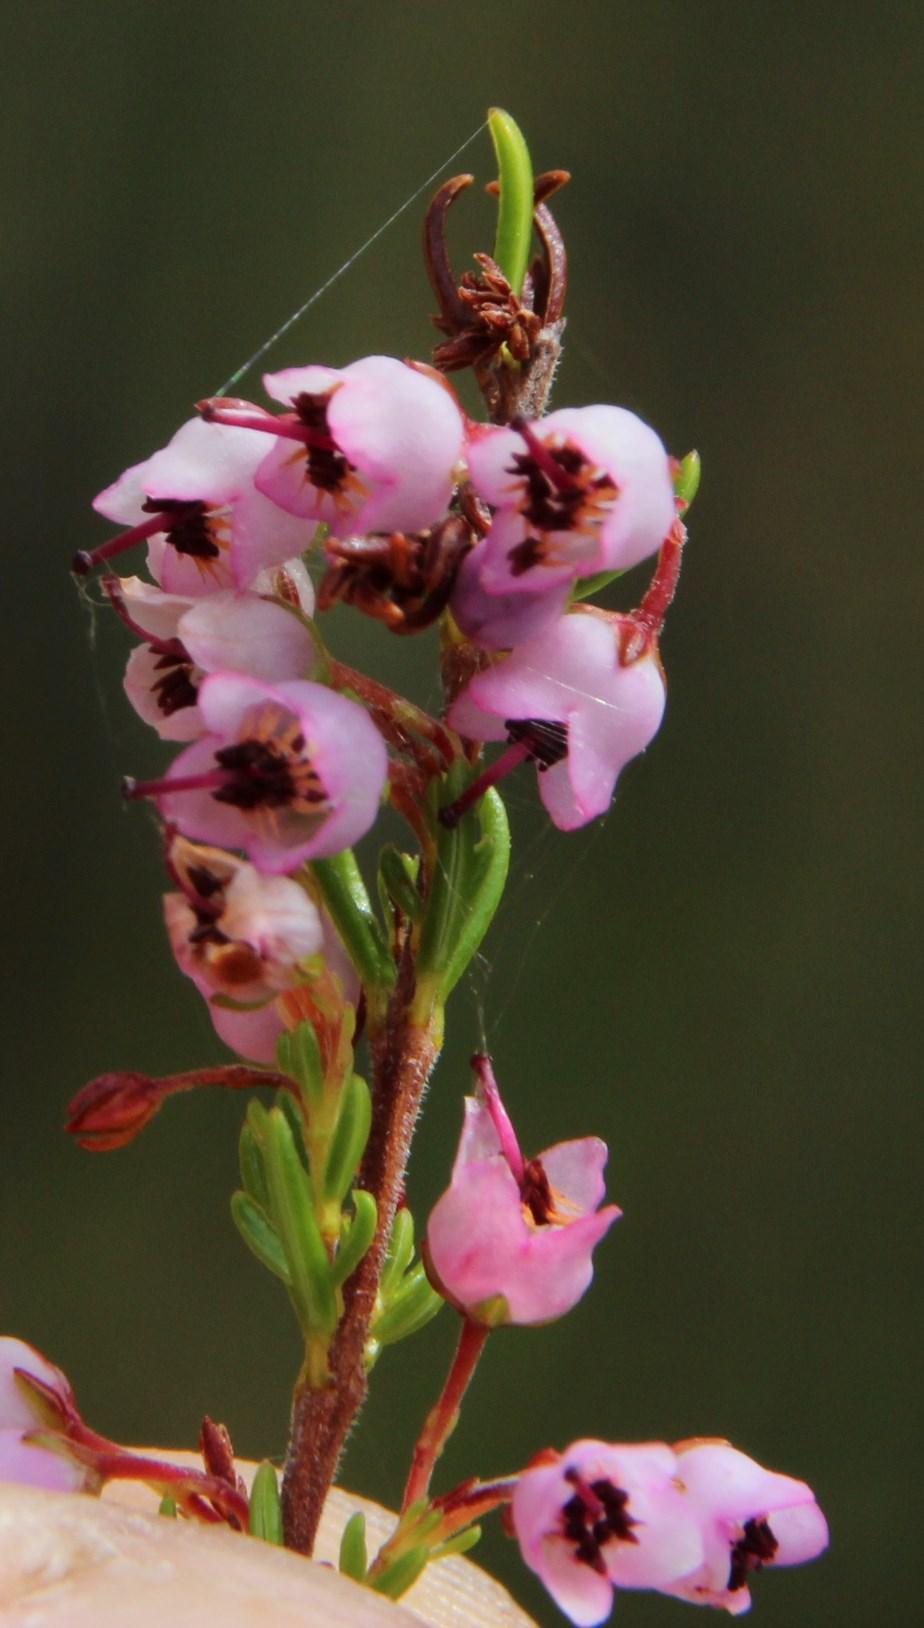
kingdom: Plantae
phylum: Tracheophyta
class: Magnoliopsida
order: Ericales
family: Ericaceae
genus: Erica
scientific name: Erica curvirostris
